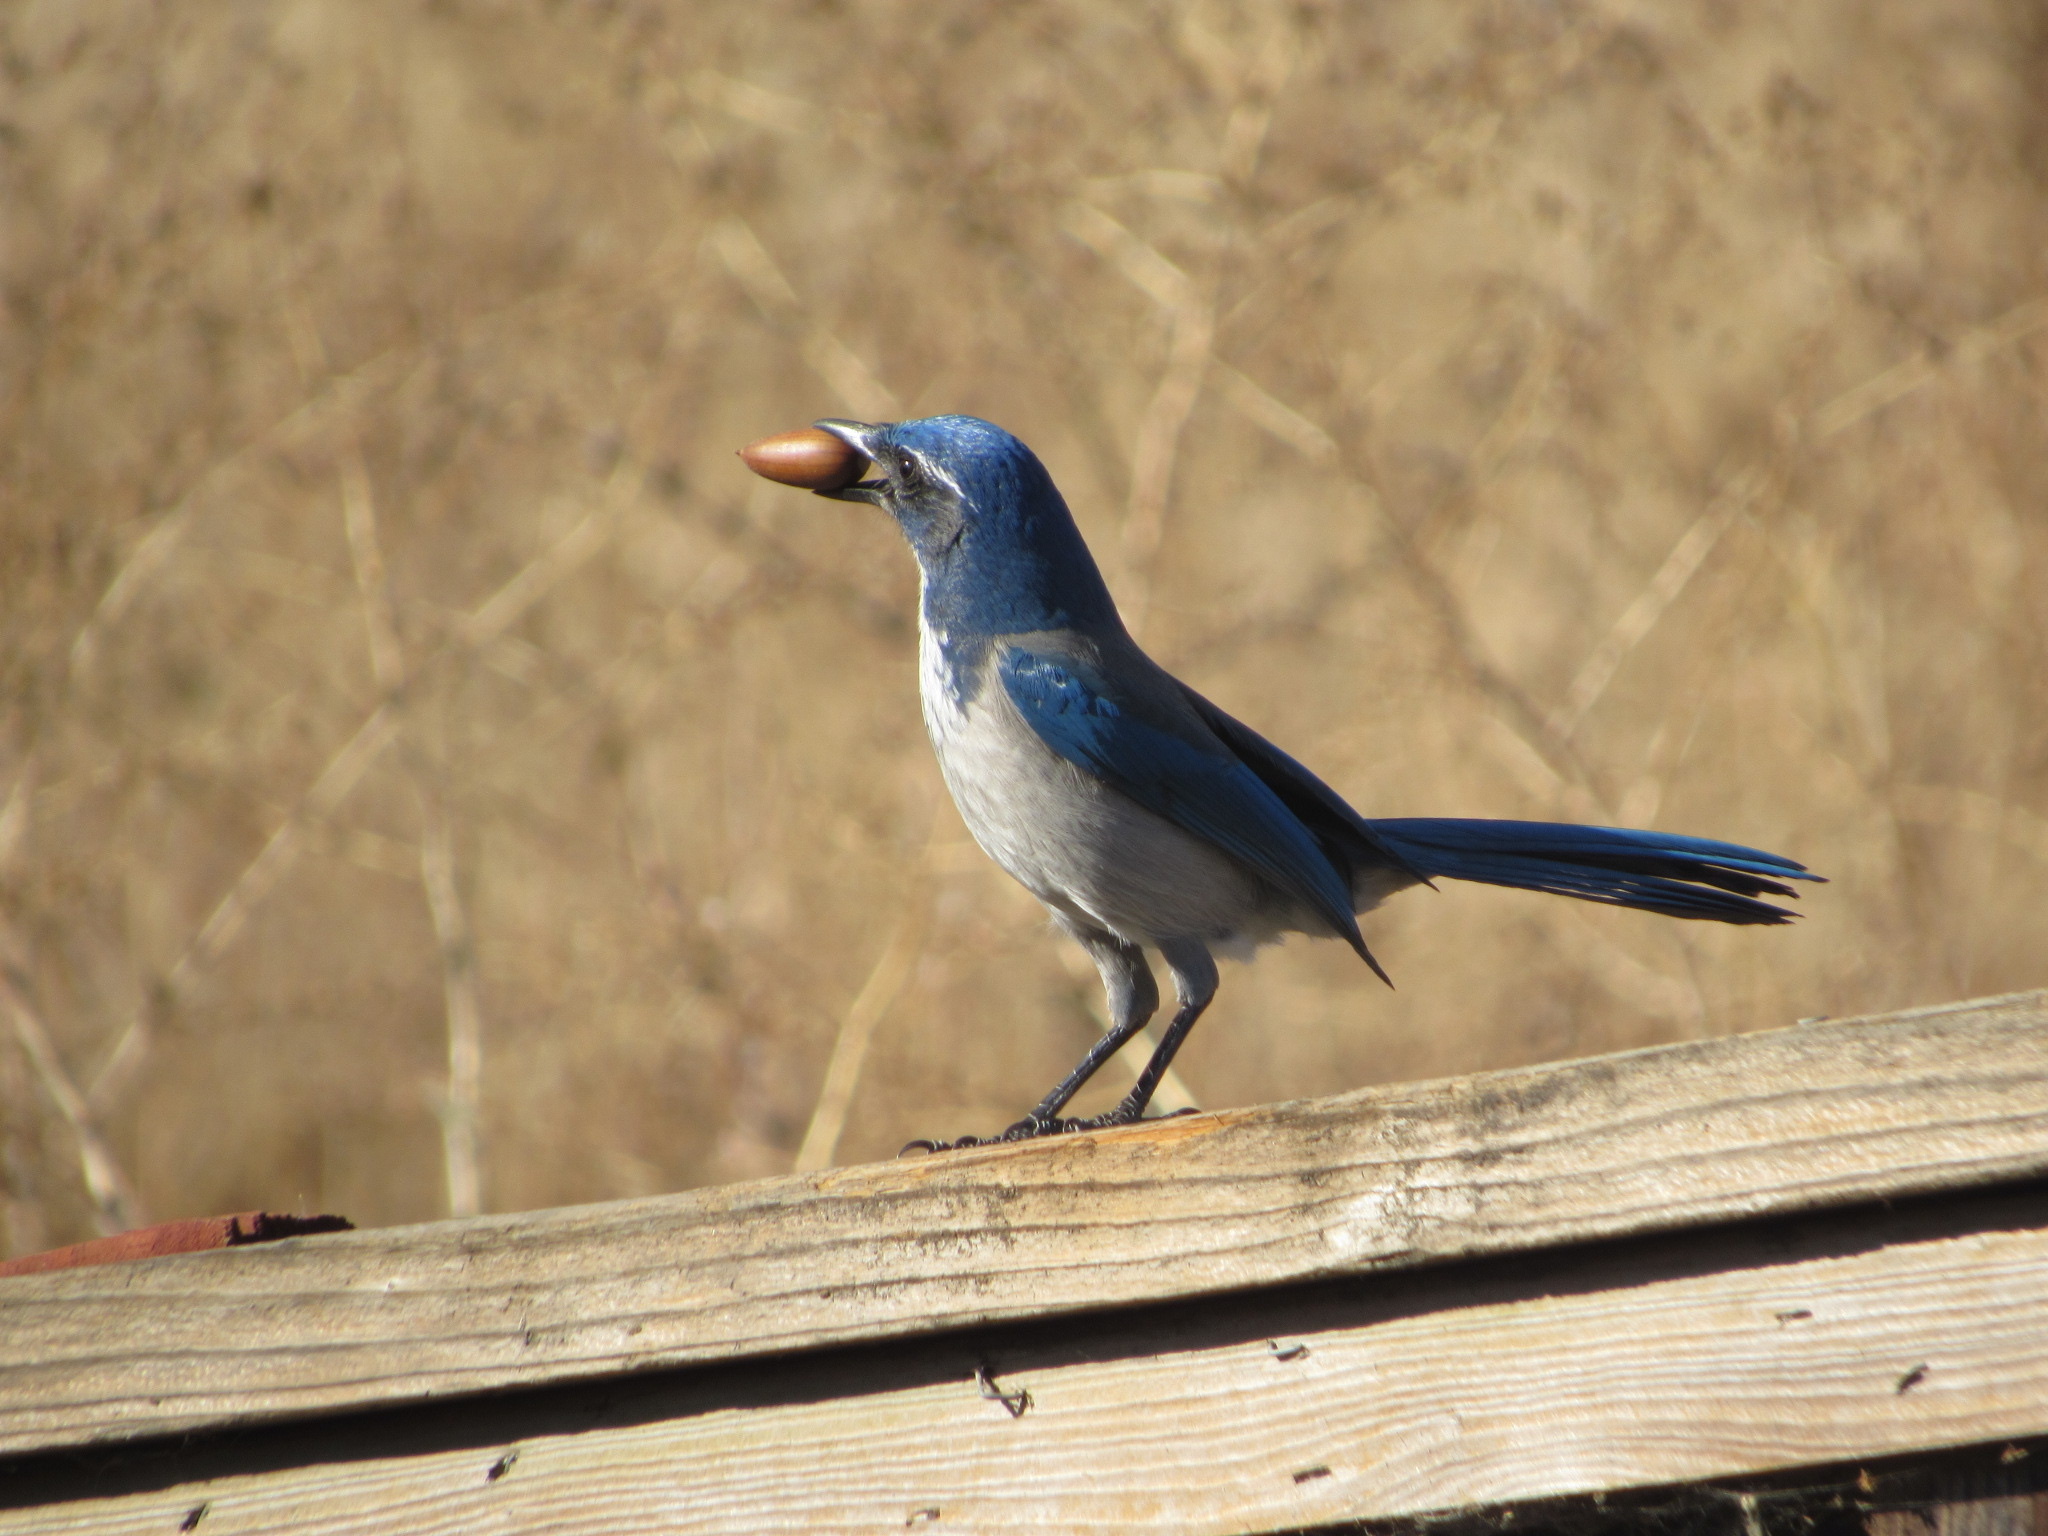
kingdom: Animalia
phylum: Chordata
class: Aves
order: Passeriformes
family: Corvidae
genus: Aphelocoma
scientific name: Aphelocoma californica
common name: California scrub-jay
